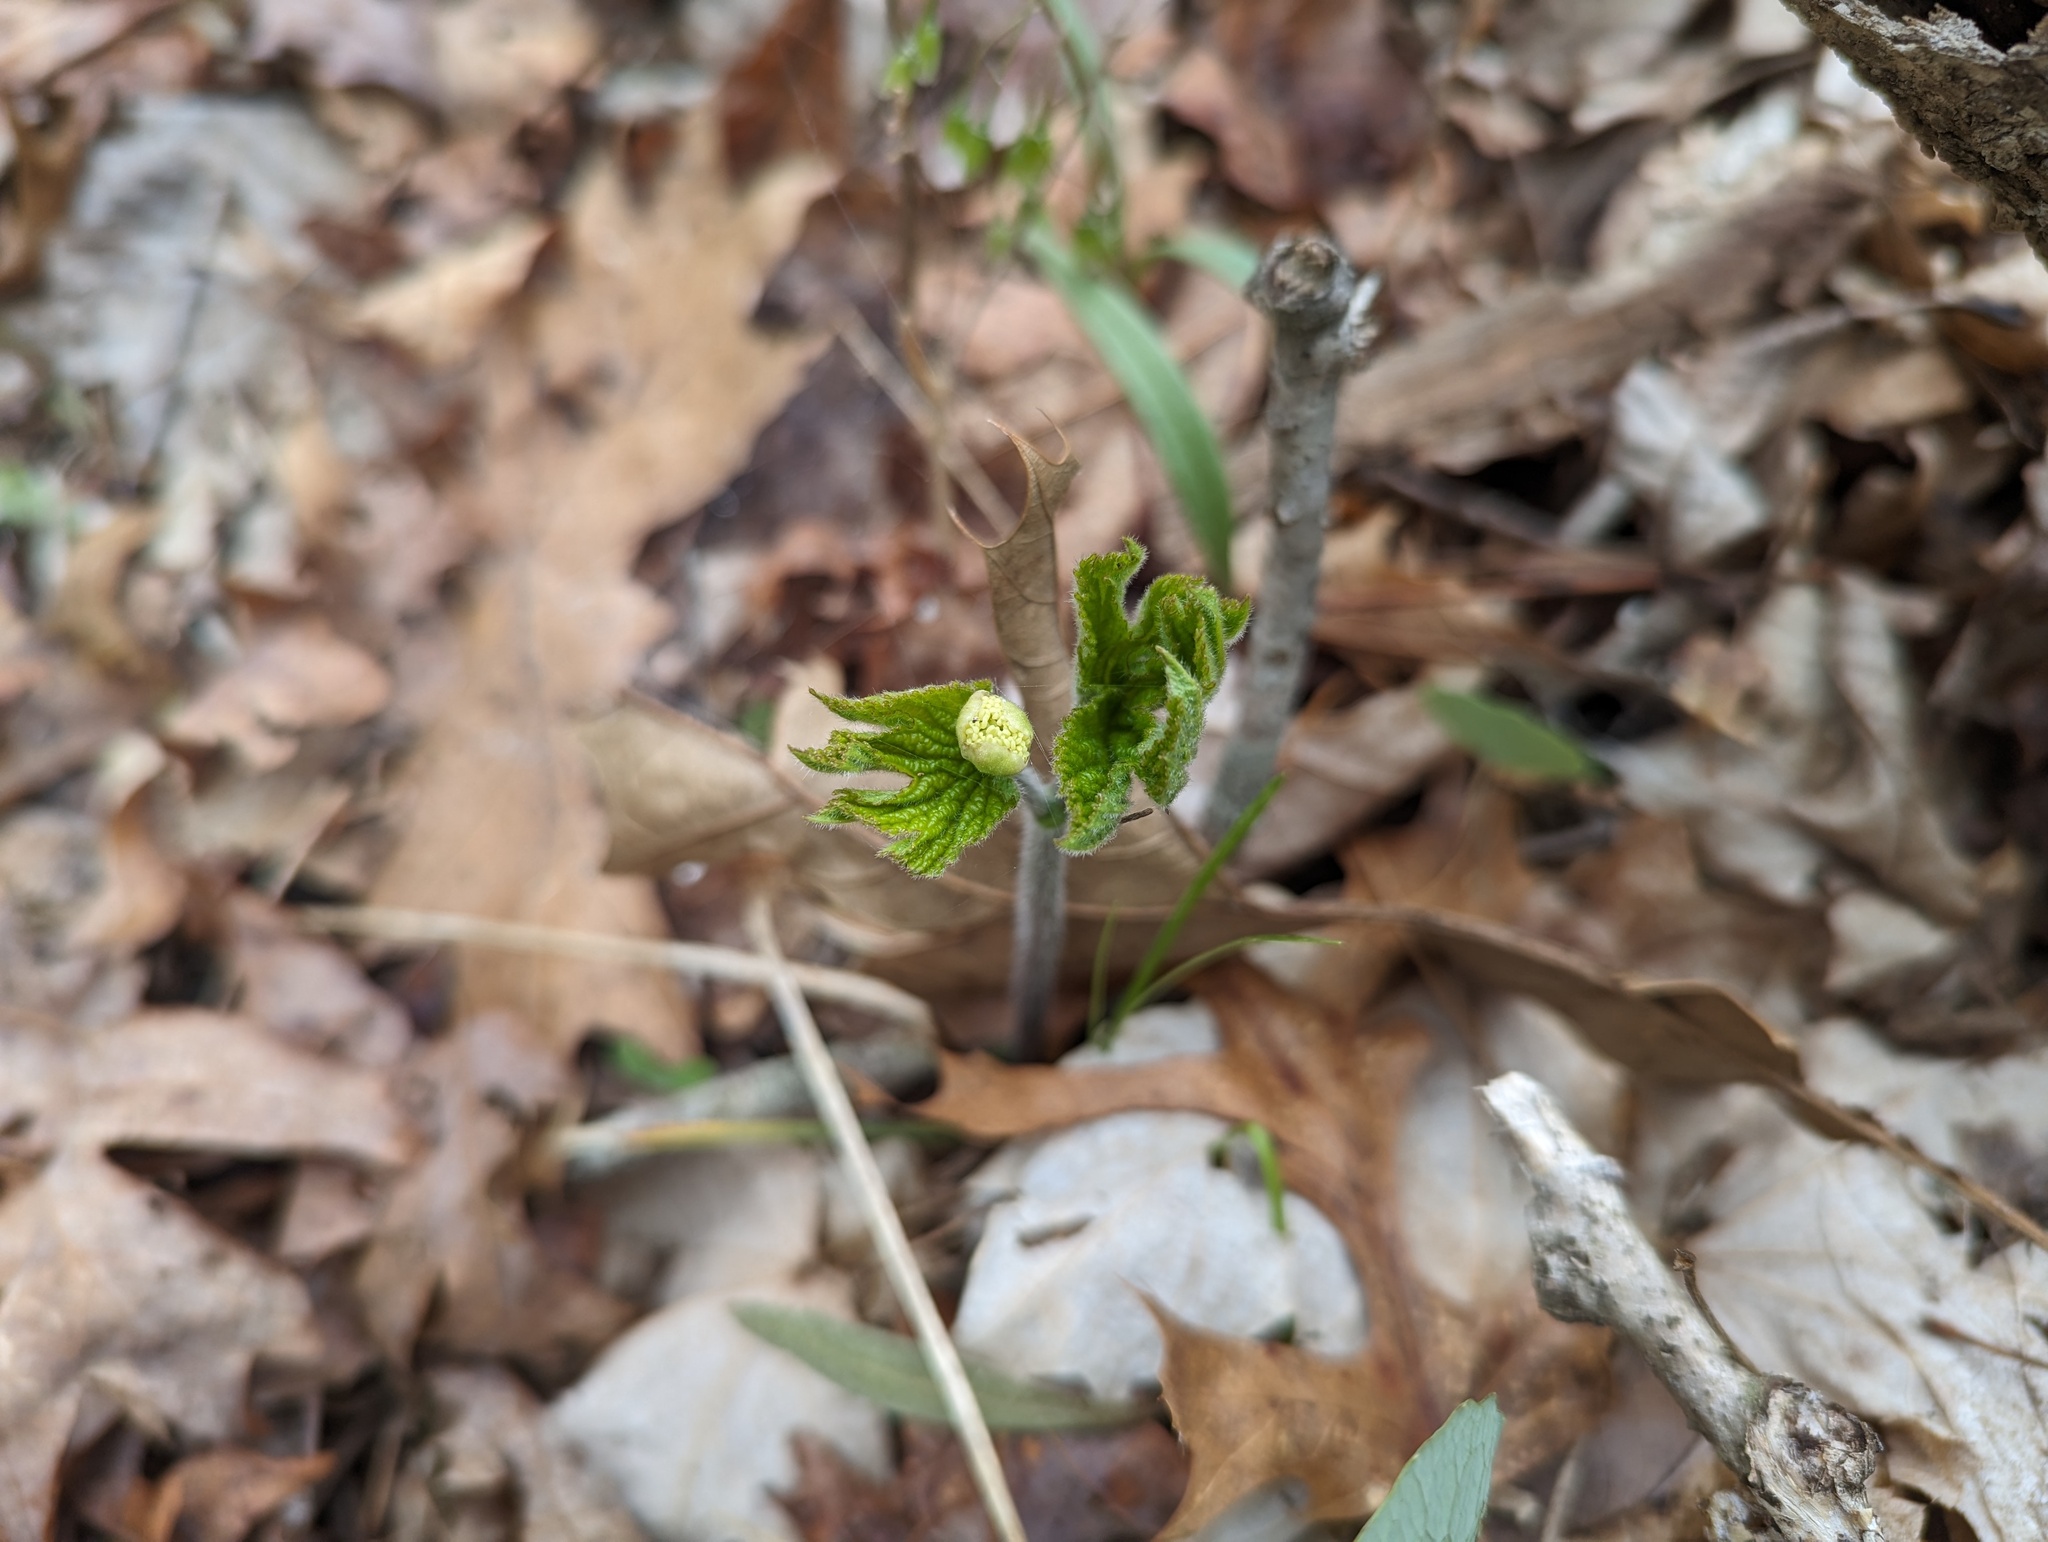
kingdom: Plantae
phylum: Tracheophyta
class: Magnoliopsida
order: Ranunculales
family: Ranunculaceae
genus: Hydrastis
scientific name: Hydrastis canadensis
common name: Goldenseal
